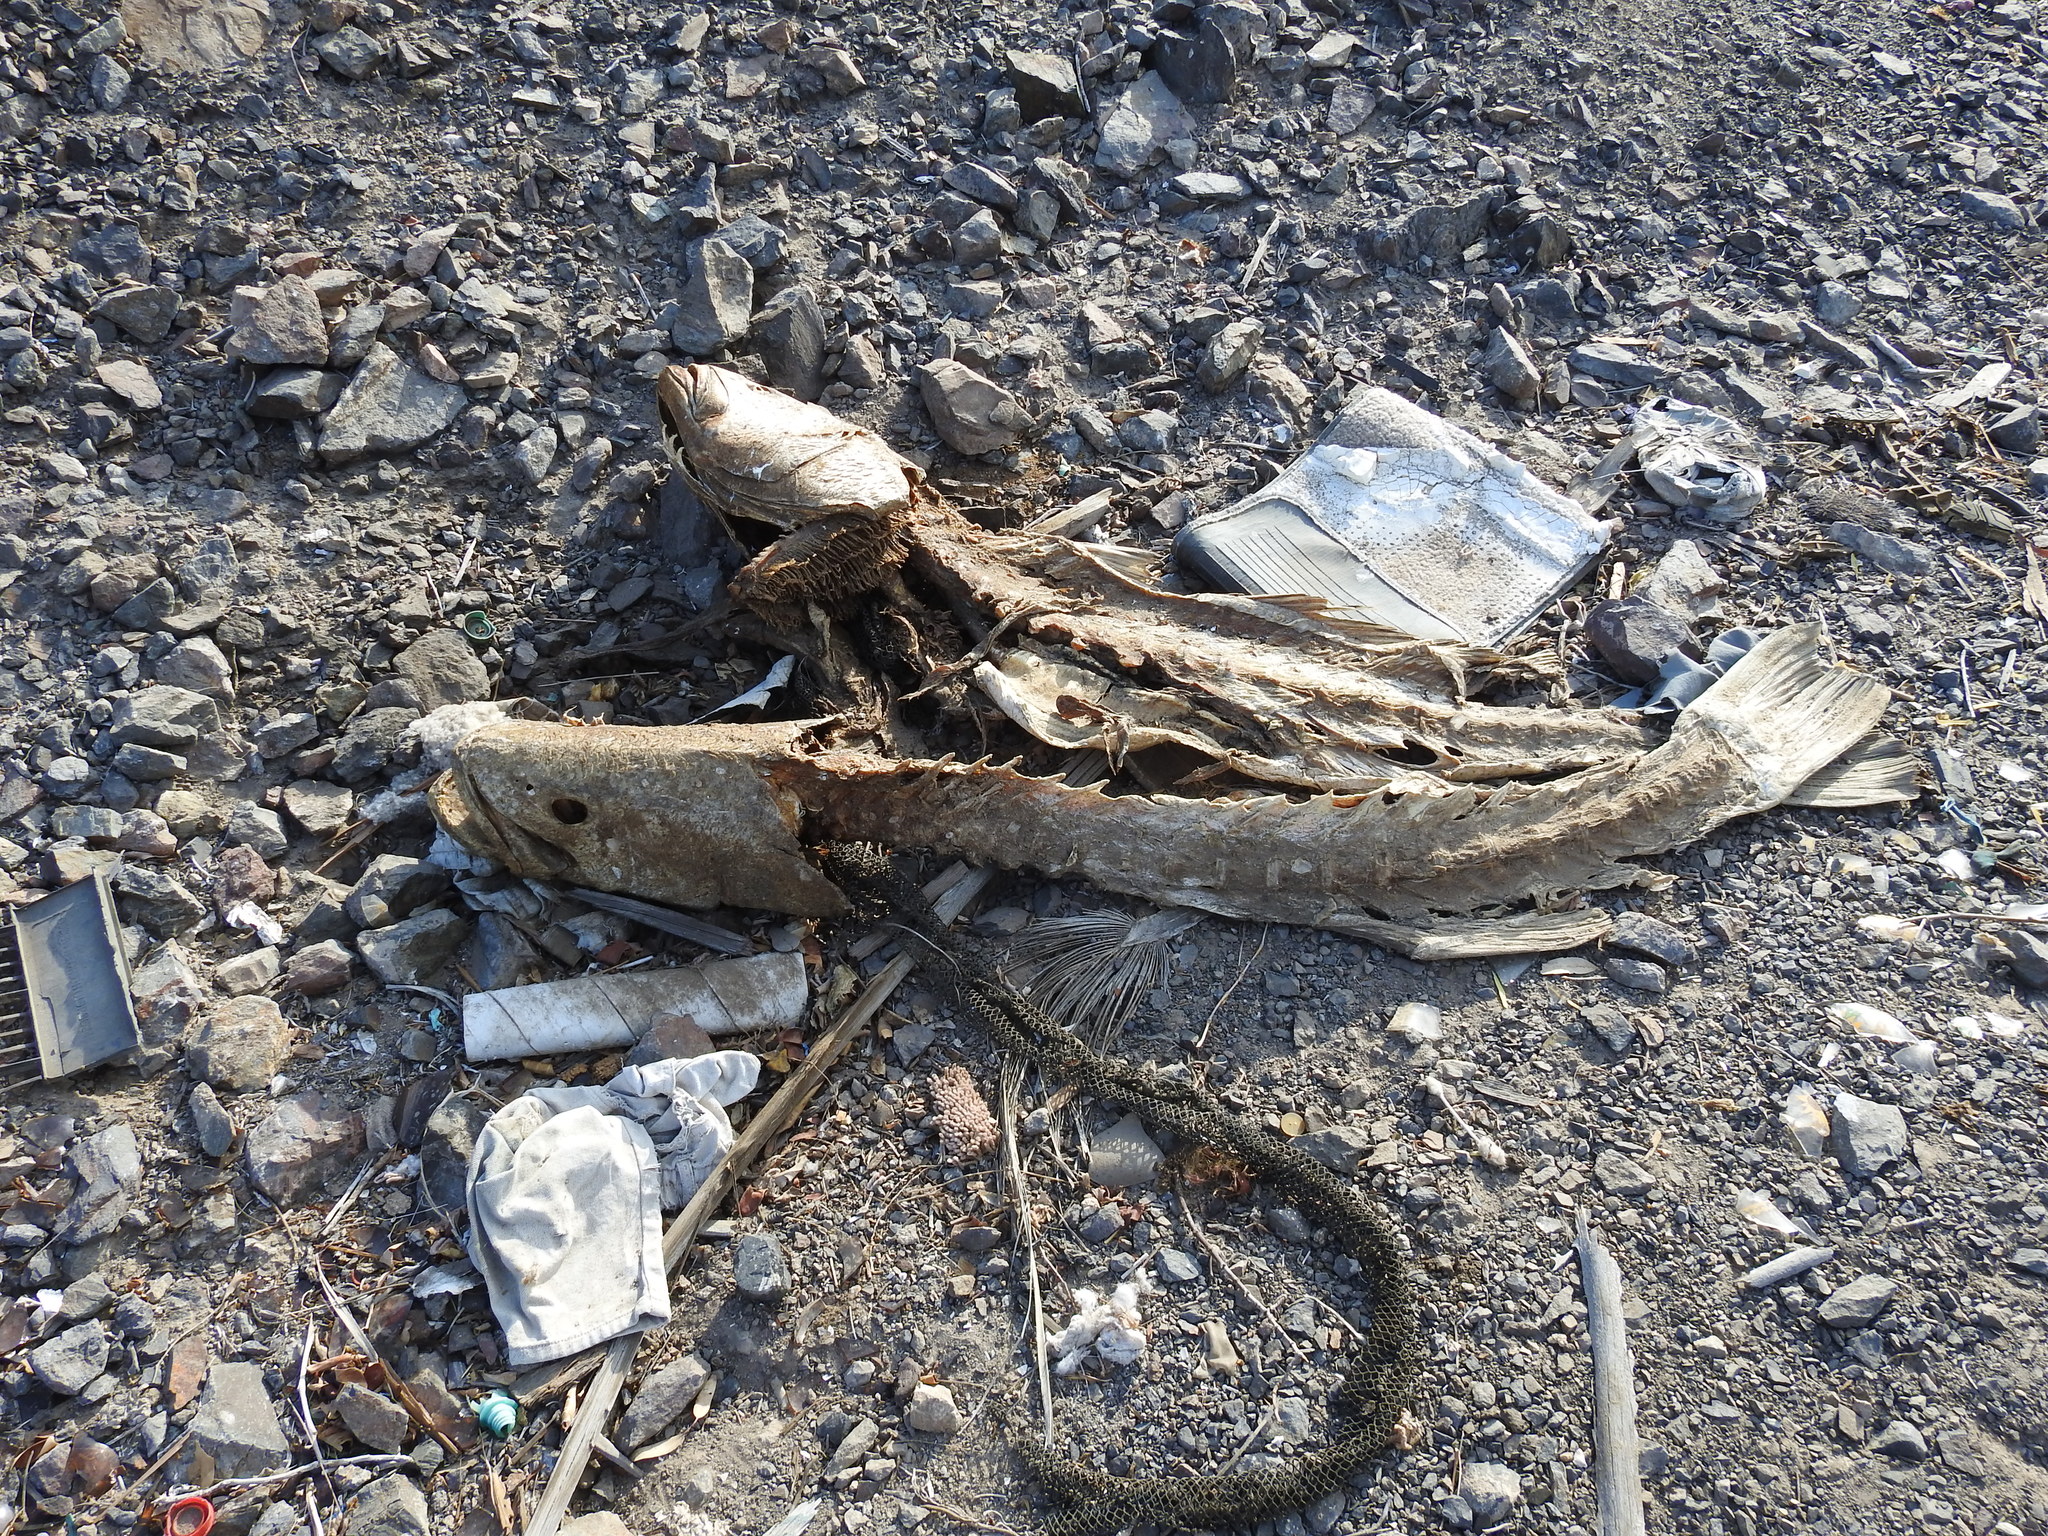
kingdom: Animalia
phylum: Chordata
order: Perciformes
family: Sciaenidae
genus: Totoaba
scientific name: Totoaba macdonaldi
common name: Totoaba
